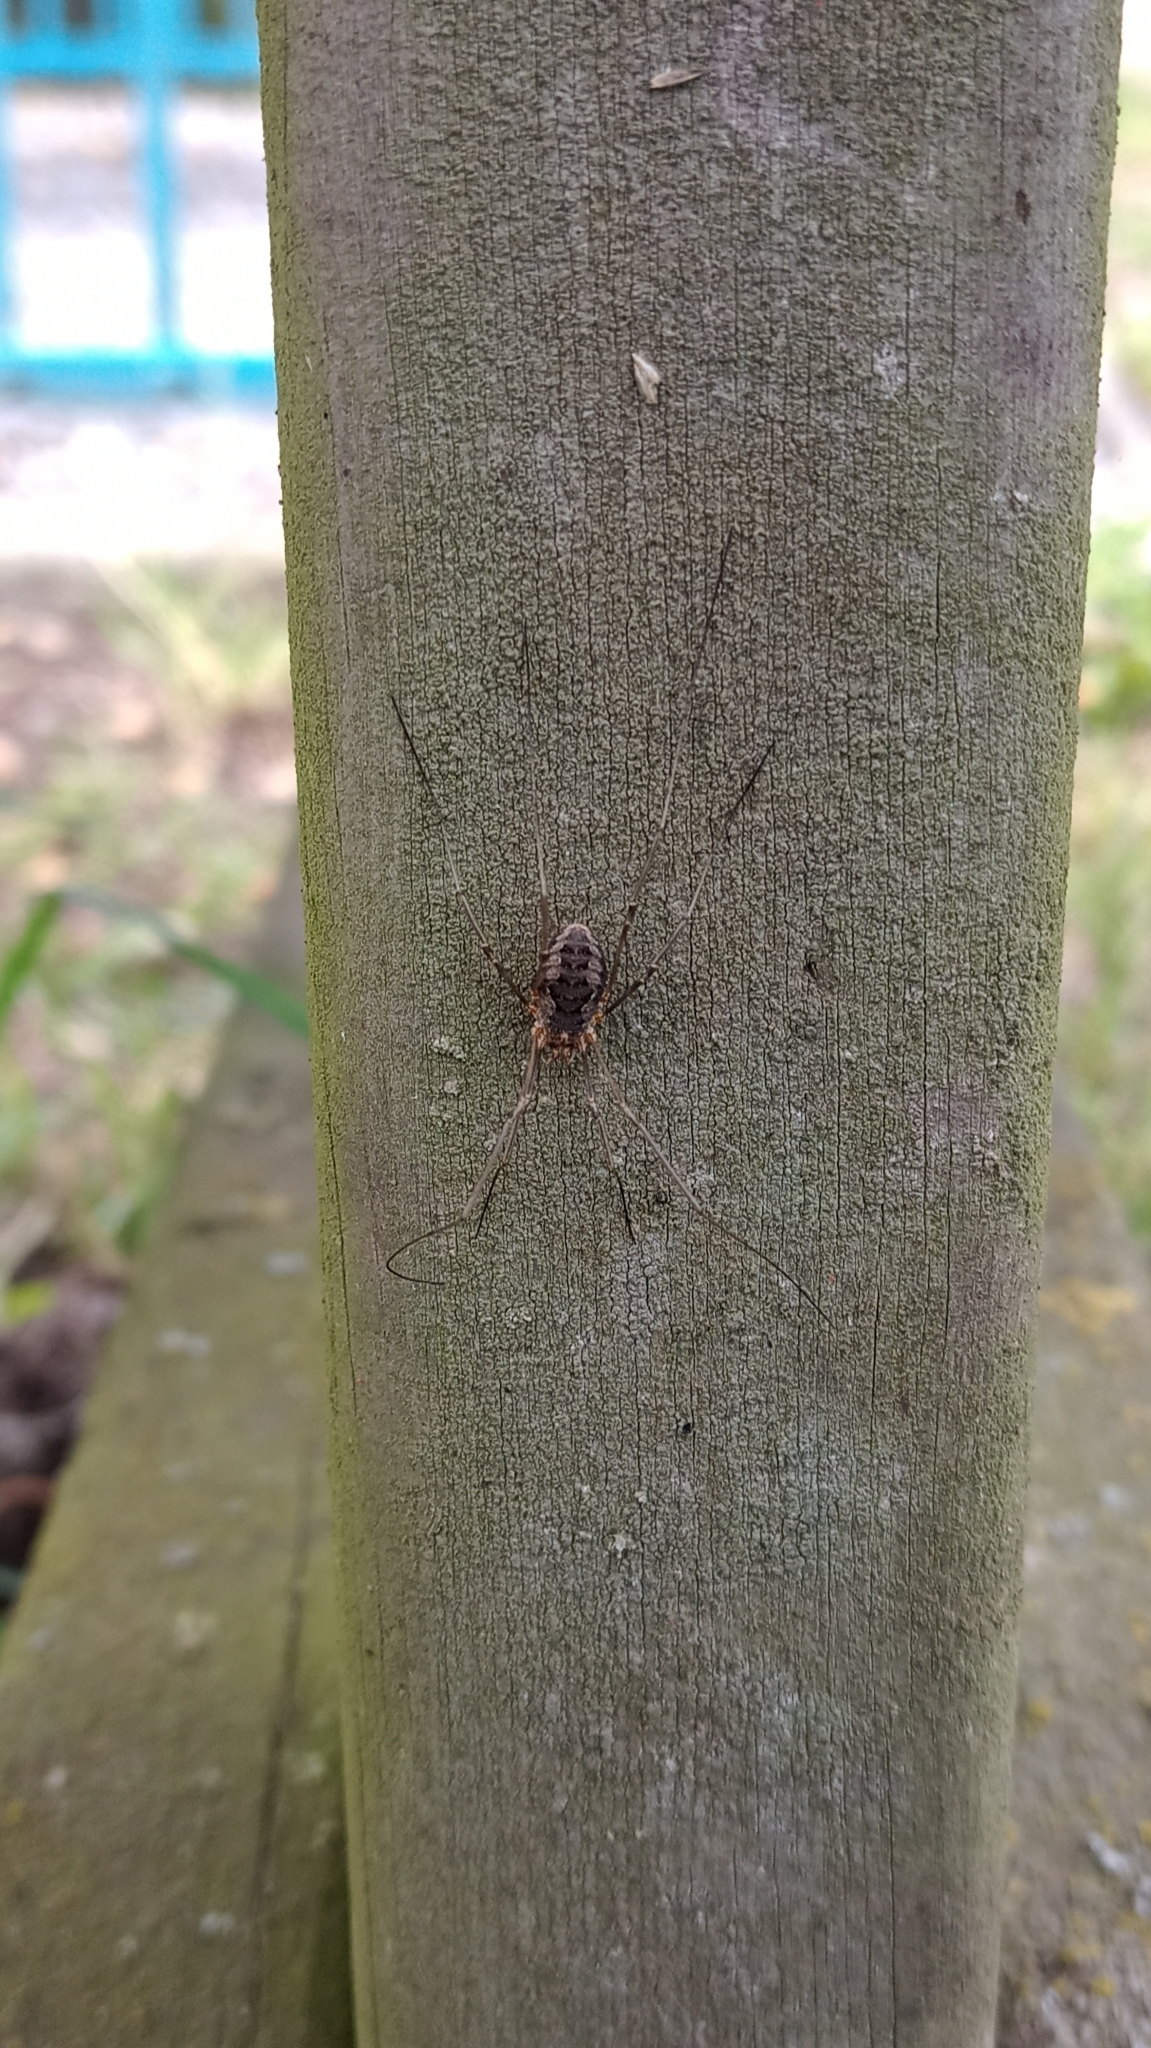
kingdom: Animalia
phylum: Arthropoda
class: Arachnida
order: Opiliones
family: Phalangiidae
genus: Phalangium
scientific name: Phalangium opilio
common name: Daddy longleg
